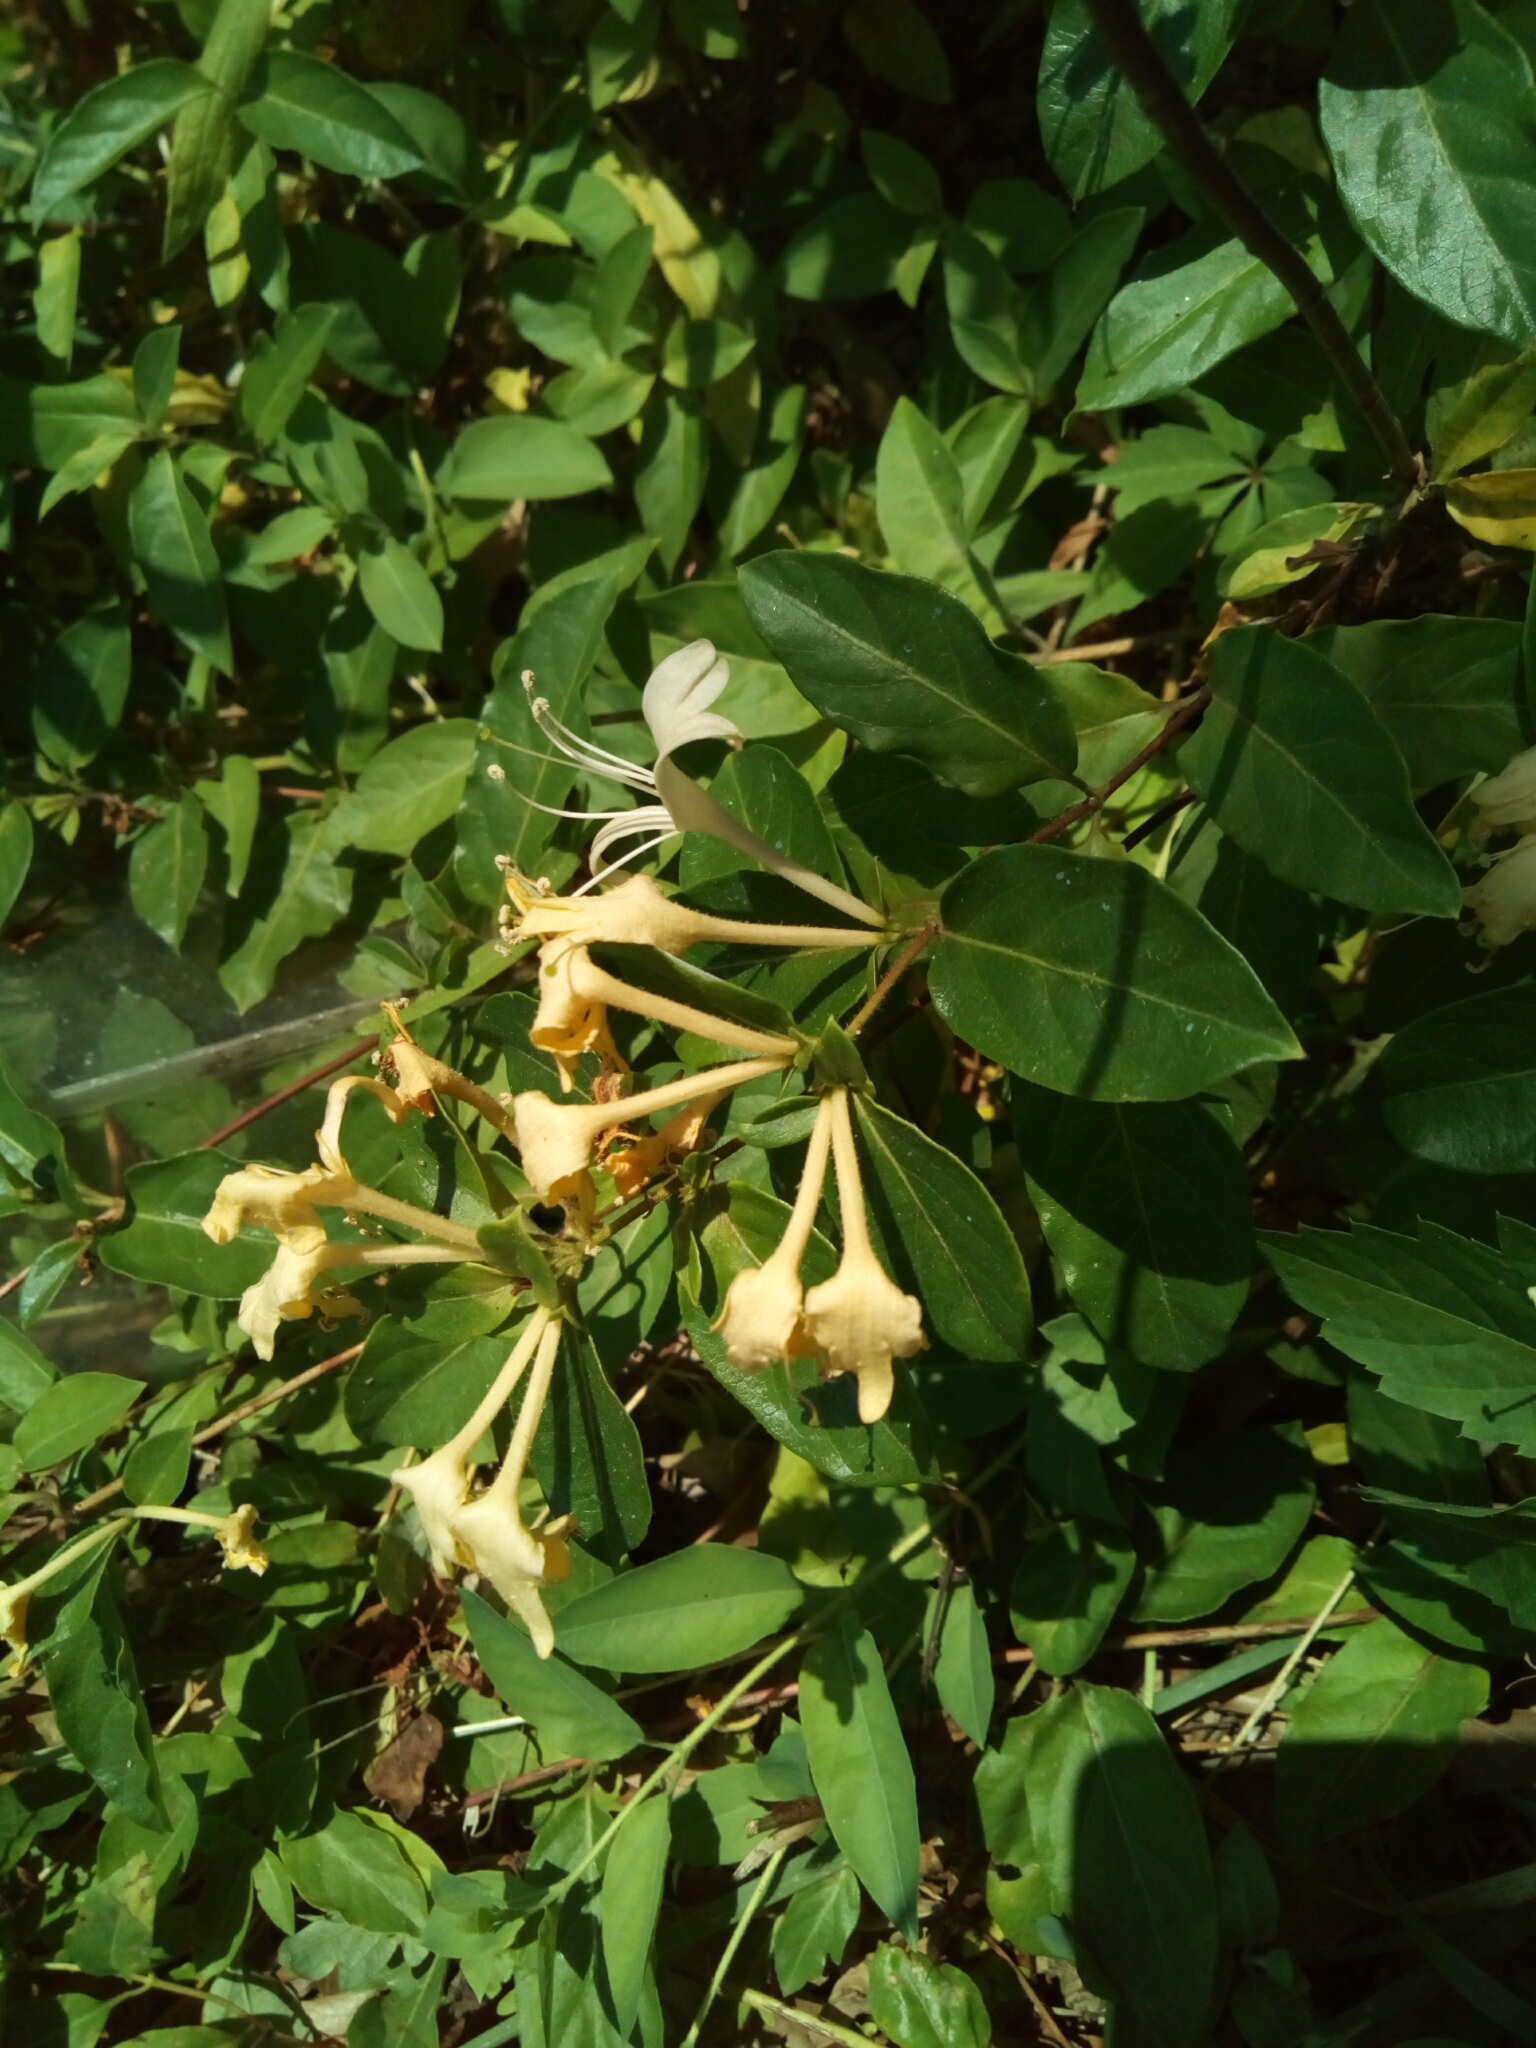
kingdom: Plantae
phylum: Tracheophyta
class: Magnoliopsida
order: Dipsacales
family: Caprifoliaceae
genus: Lonicera
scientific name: Lonicera japonica
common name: Japanese honeysuckle
